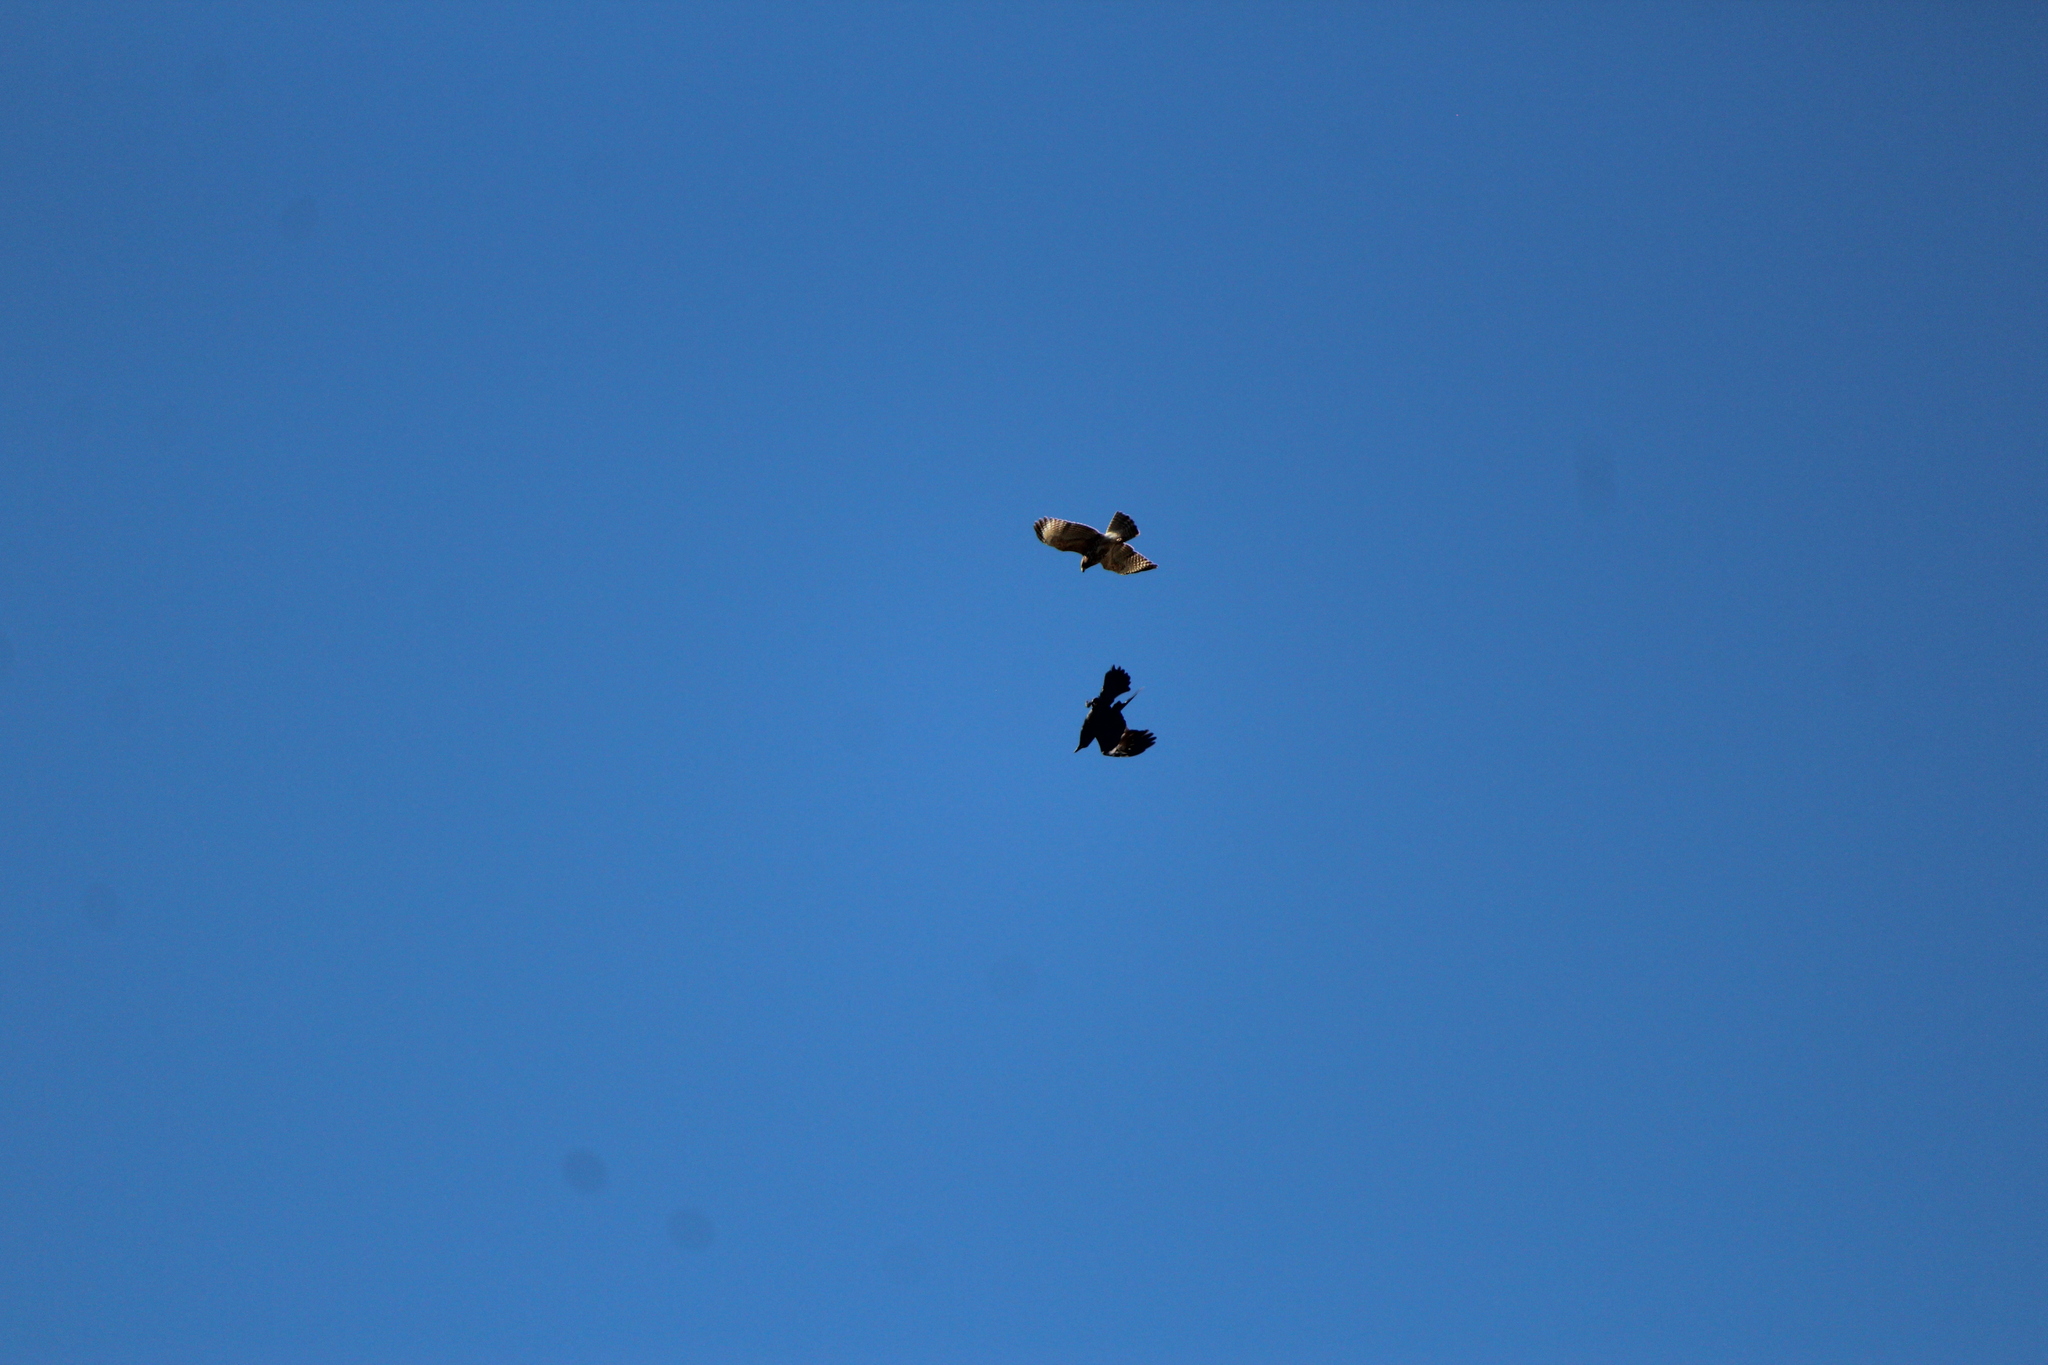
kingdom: Animalia
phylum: Chordata
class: Aves
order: Accipitriformes
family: Accipitridae
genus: Buteo
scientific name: Buteo lineatus
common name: Red-shouldered hawk
